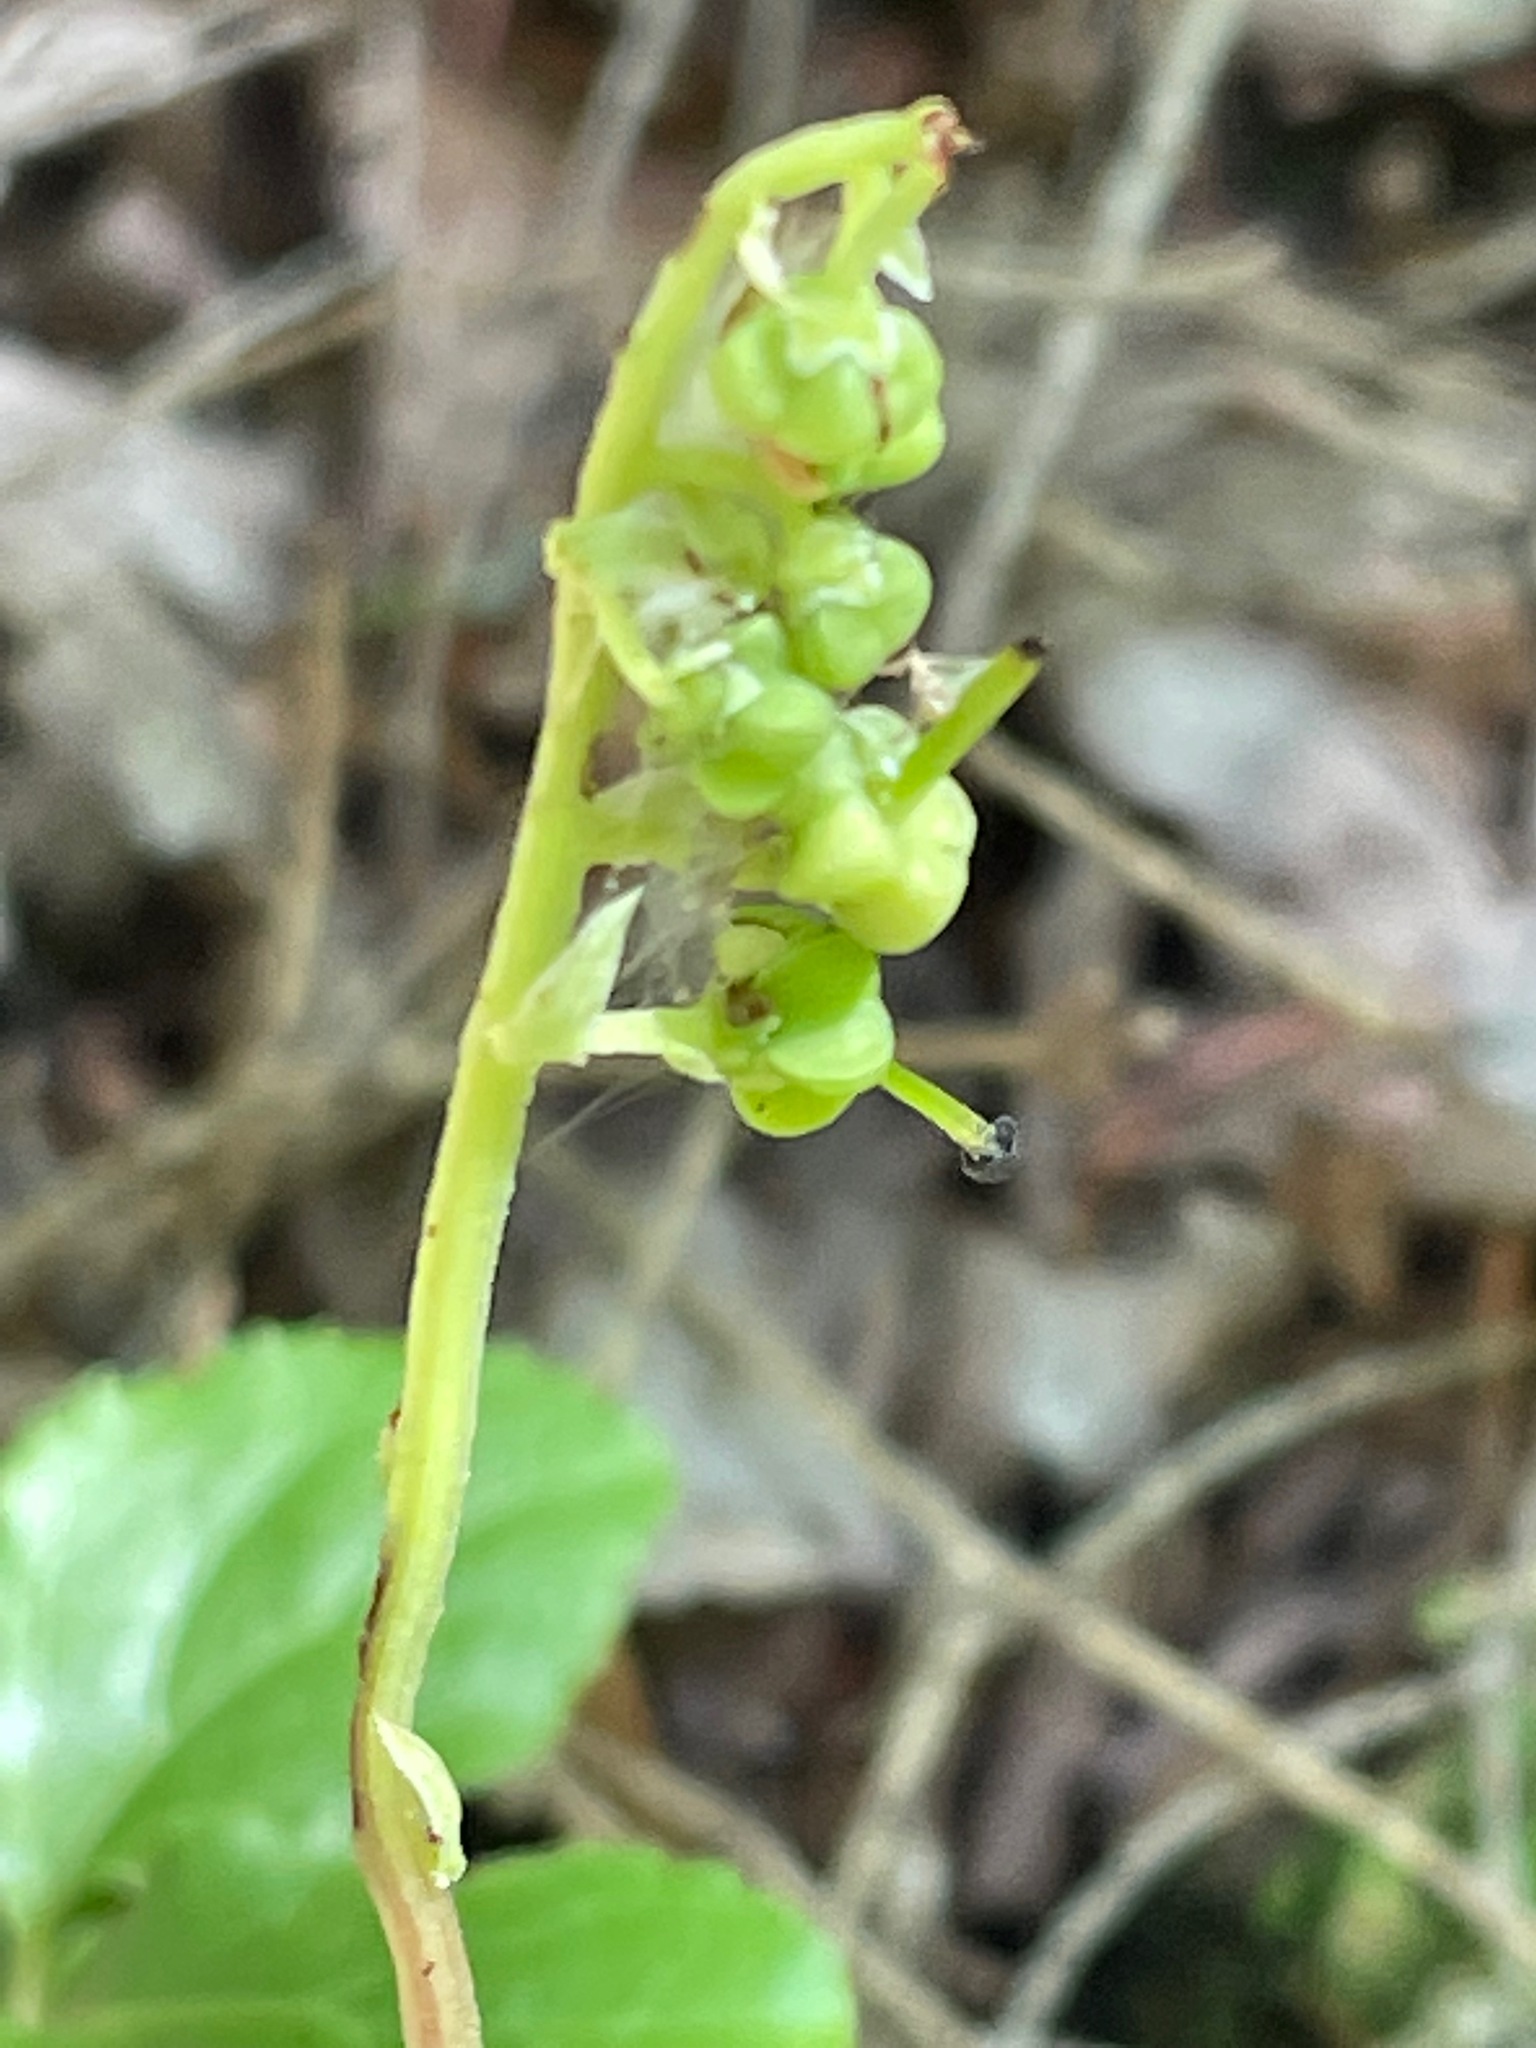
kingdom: Plantae
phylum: Tracheophyta
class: Magnoliopsida
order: Ericales
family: Ericaceae
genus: Orthilia
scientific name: Orthilia secunda
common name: One-sided orthilia
